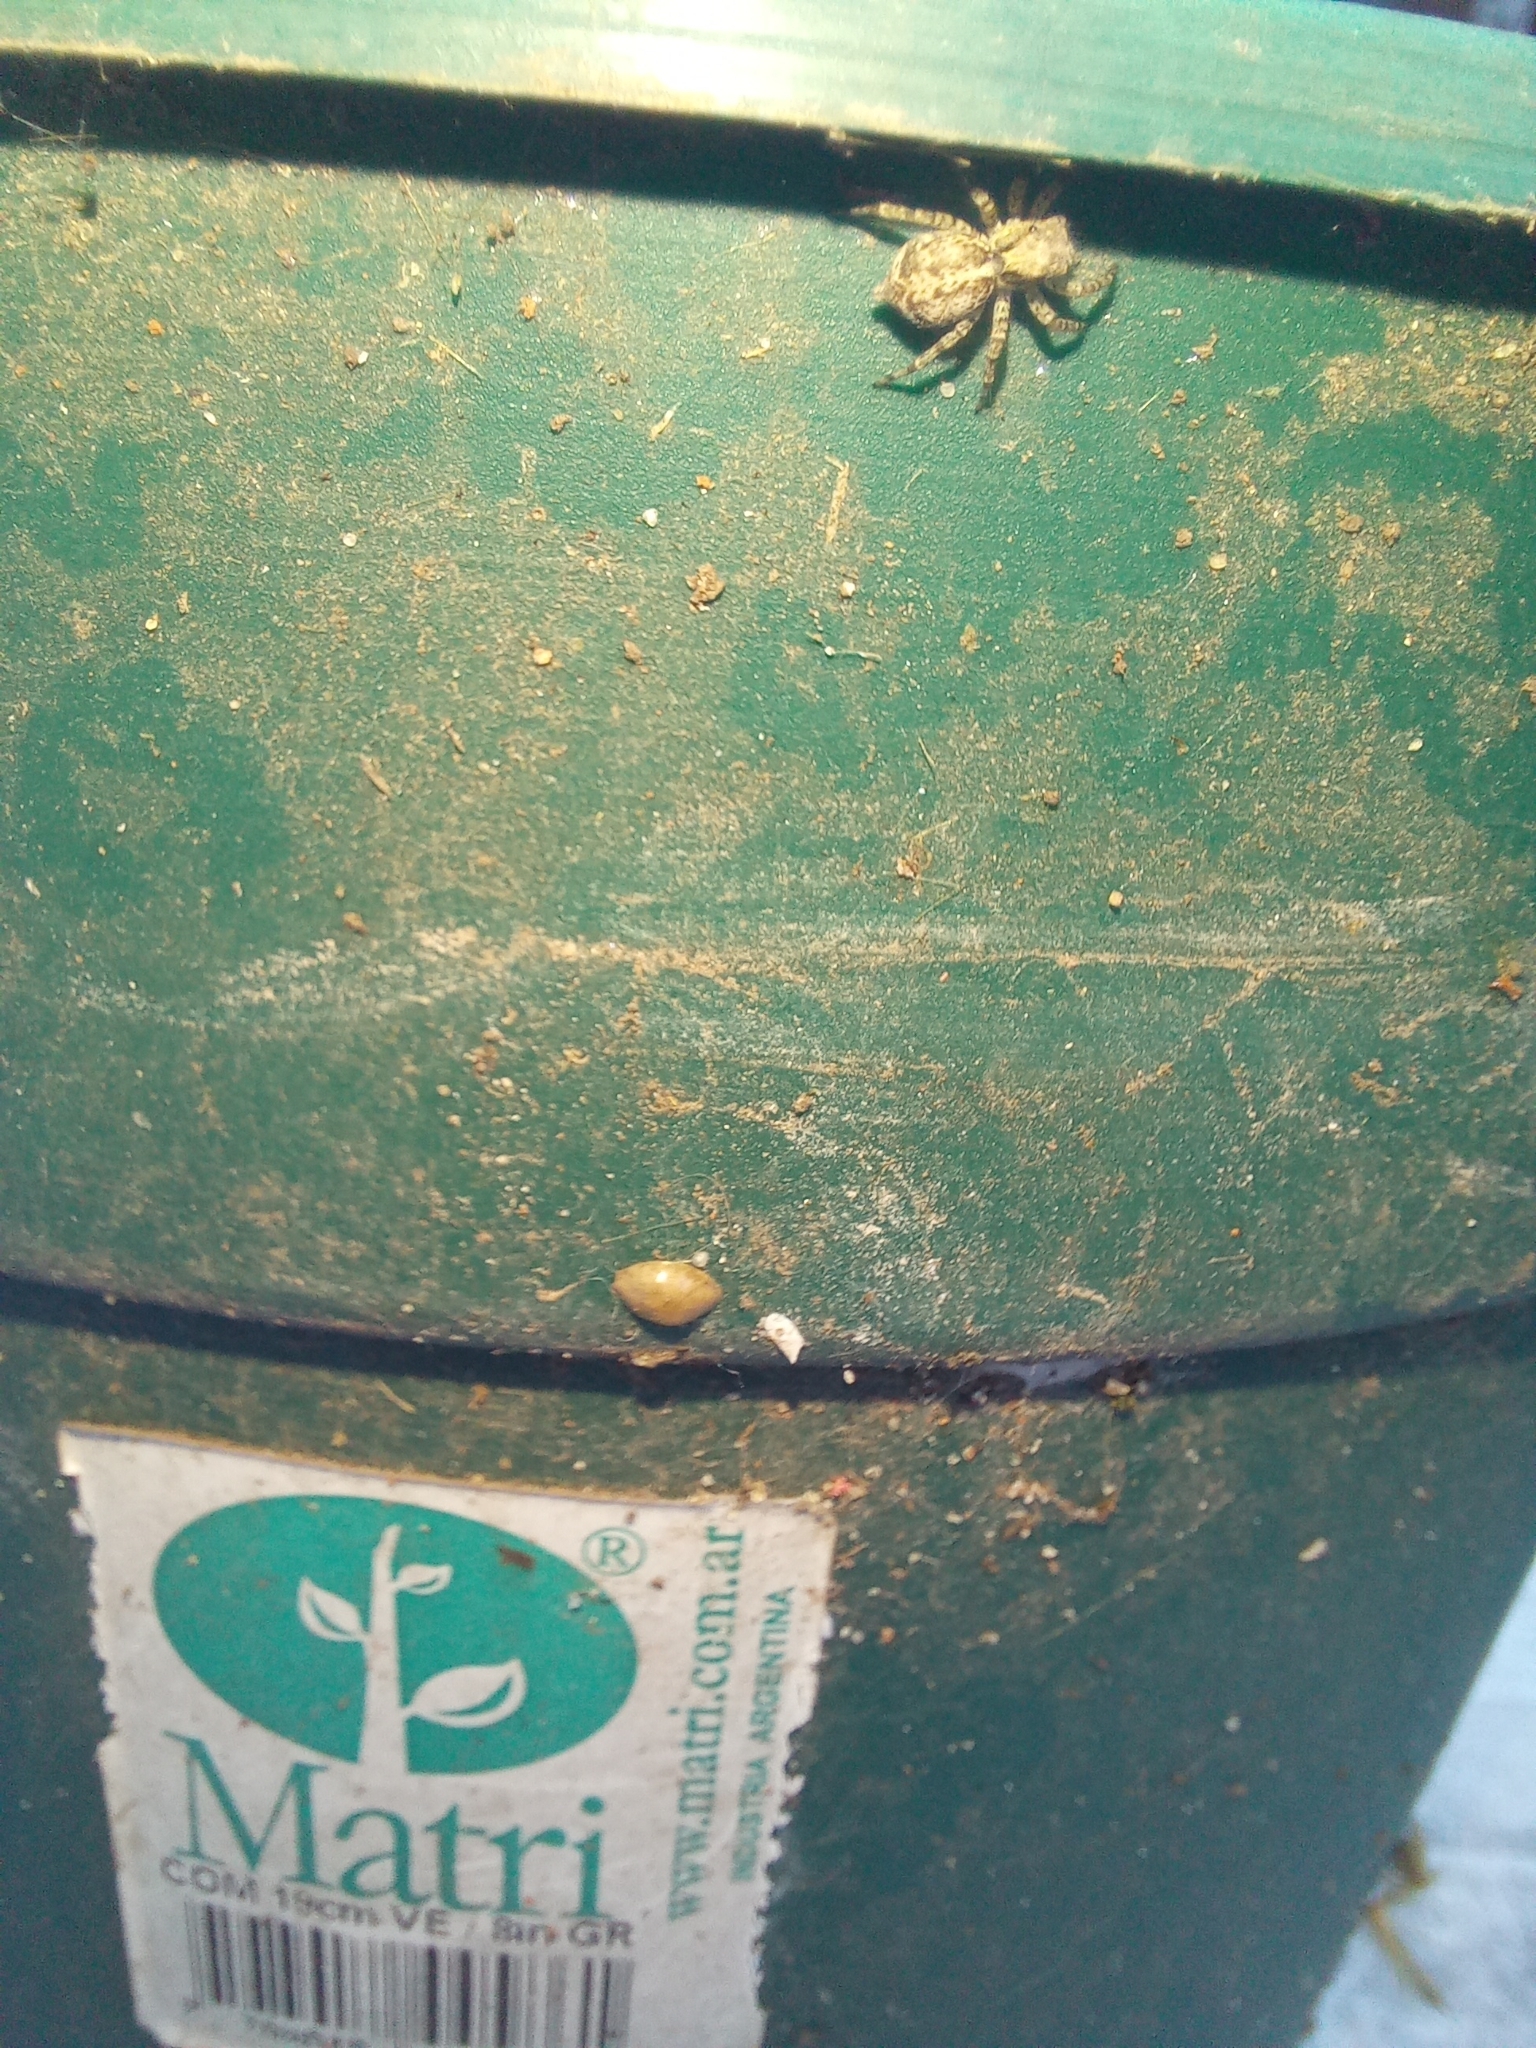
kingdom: Animalia
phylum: Arthropoda
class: Arachnida
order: Araneae
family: Salticidae
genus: Saitis
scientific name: Saitis variegatus
